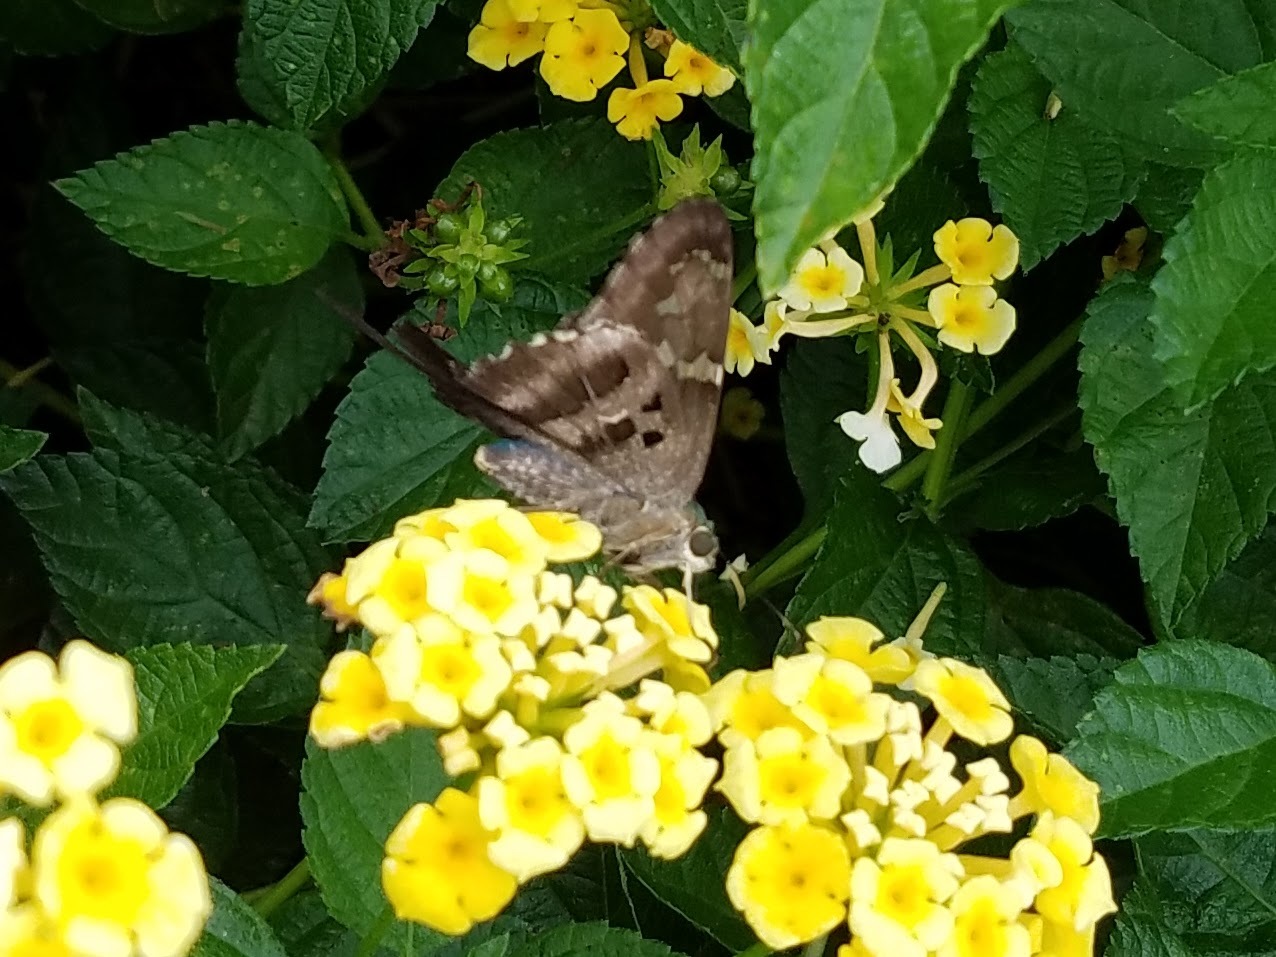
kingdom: Animalia
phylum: Arthropoda
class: Insecta
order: Lepidoptera
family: Hesperiidae
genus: Urbanus
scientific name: Urbanus proteus
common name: Long-tailed skipper
